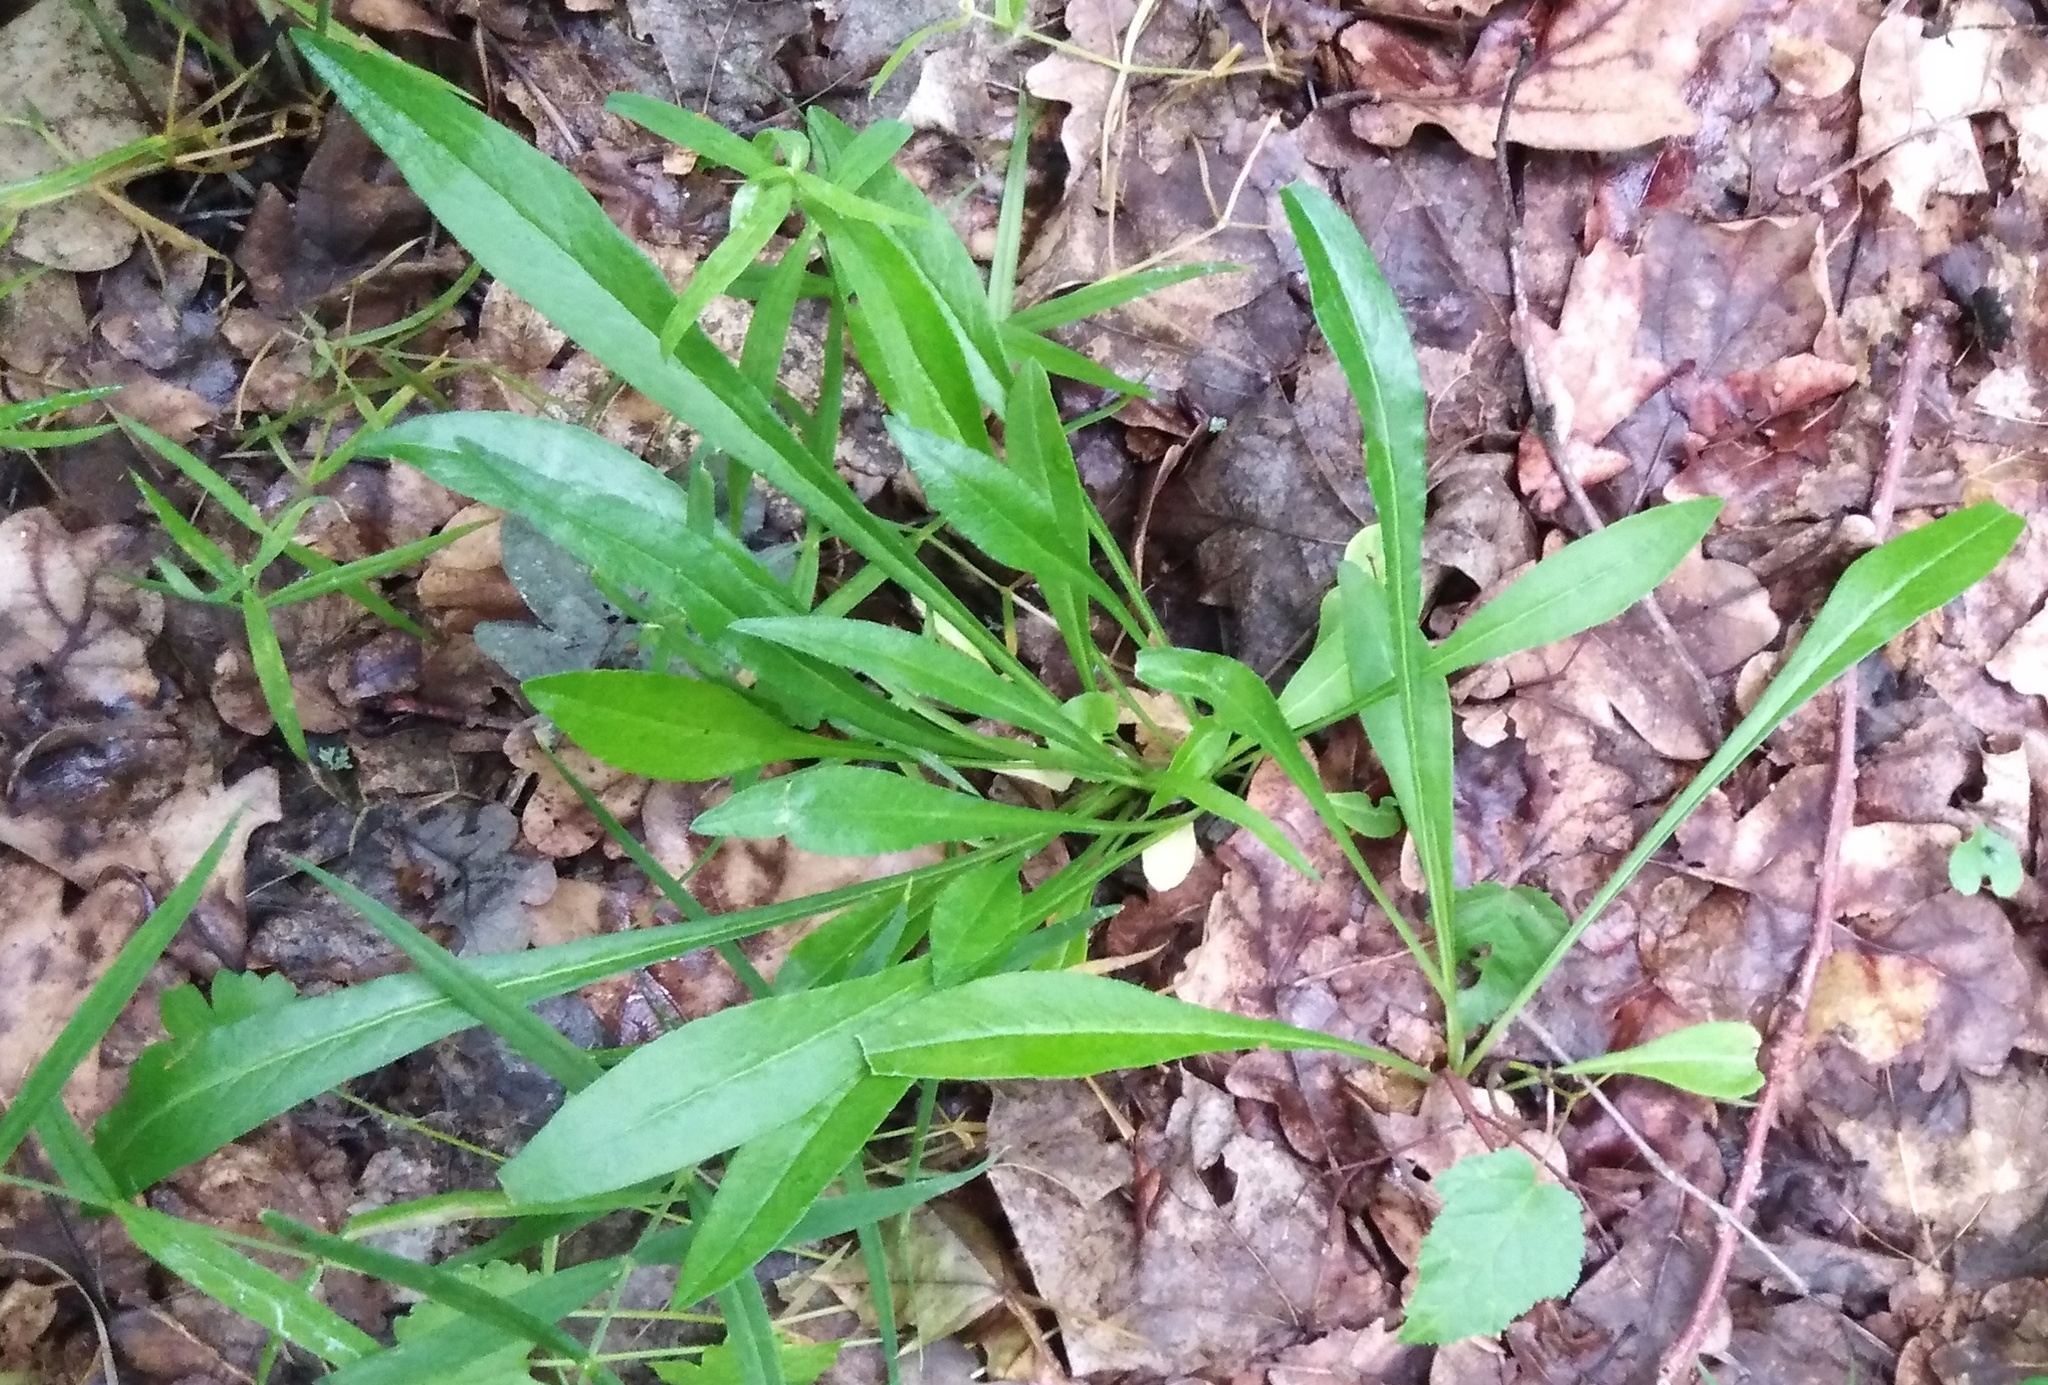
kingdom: Plantae
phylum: Tracheophyta
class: Magnoliopsida
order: Asterales
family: Campanulaceae
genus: Campanula
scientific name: Campanula persicifolia
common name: Peach-leaved bellflower
